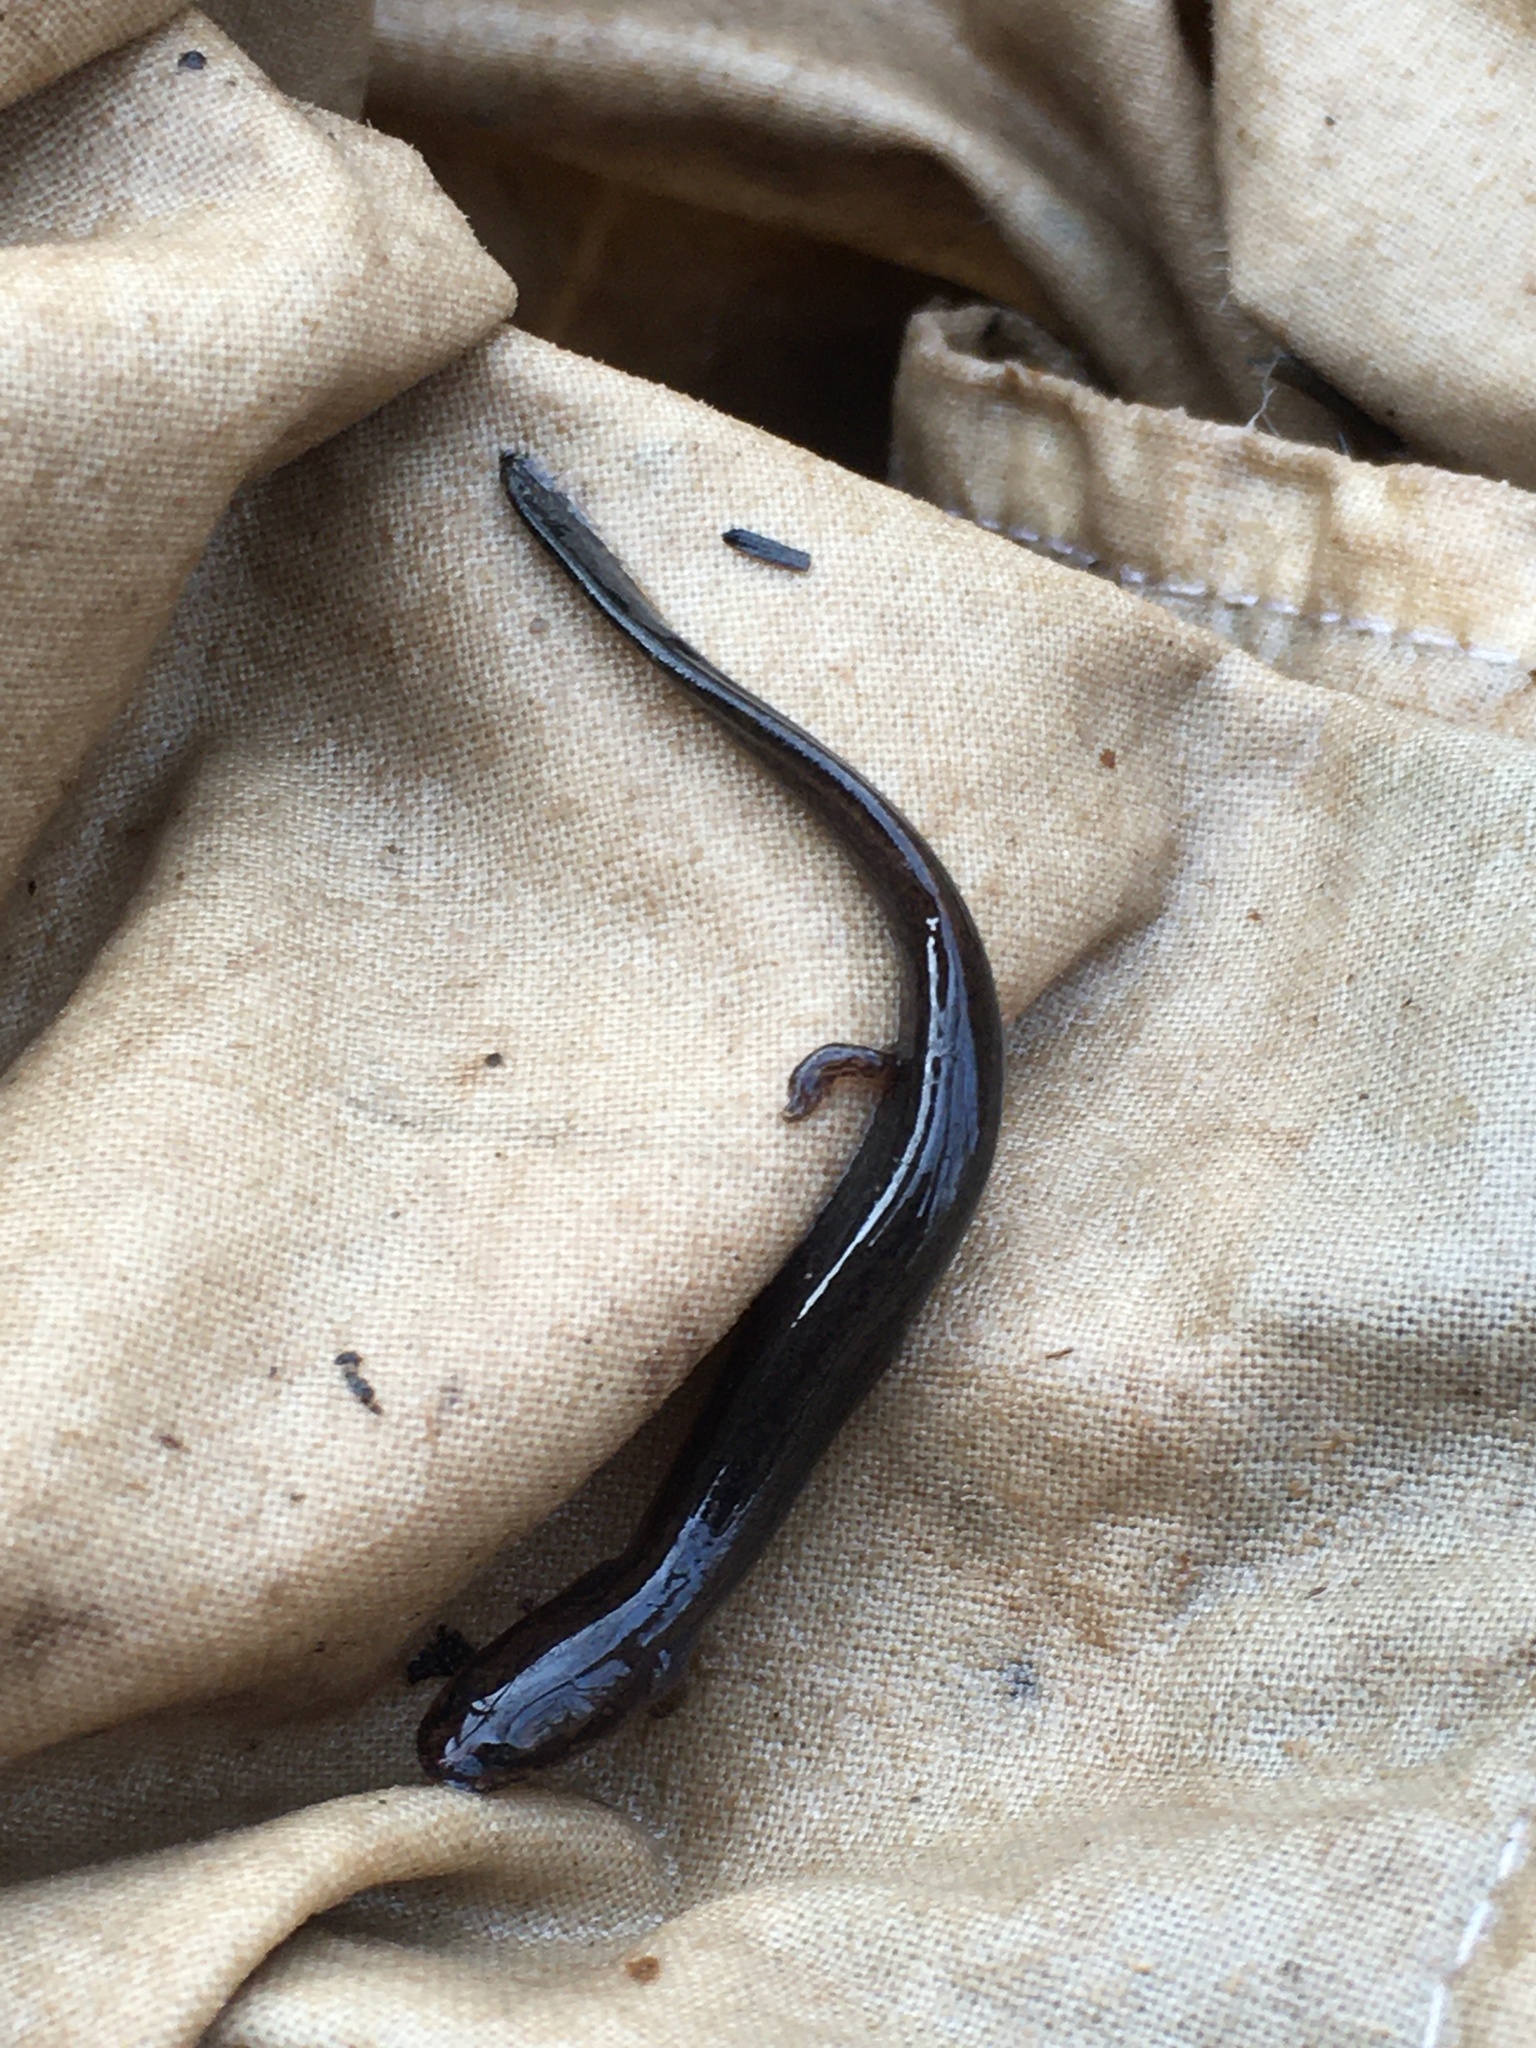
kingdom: Animalia
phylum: Chordata
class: Amphibia
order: Caudata
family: Plethodontidae
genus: Stereochilus
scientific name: Stereochilus marginatus
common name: Many-lined salamander
